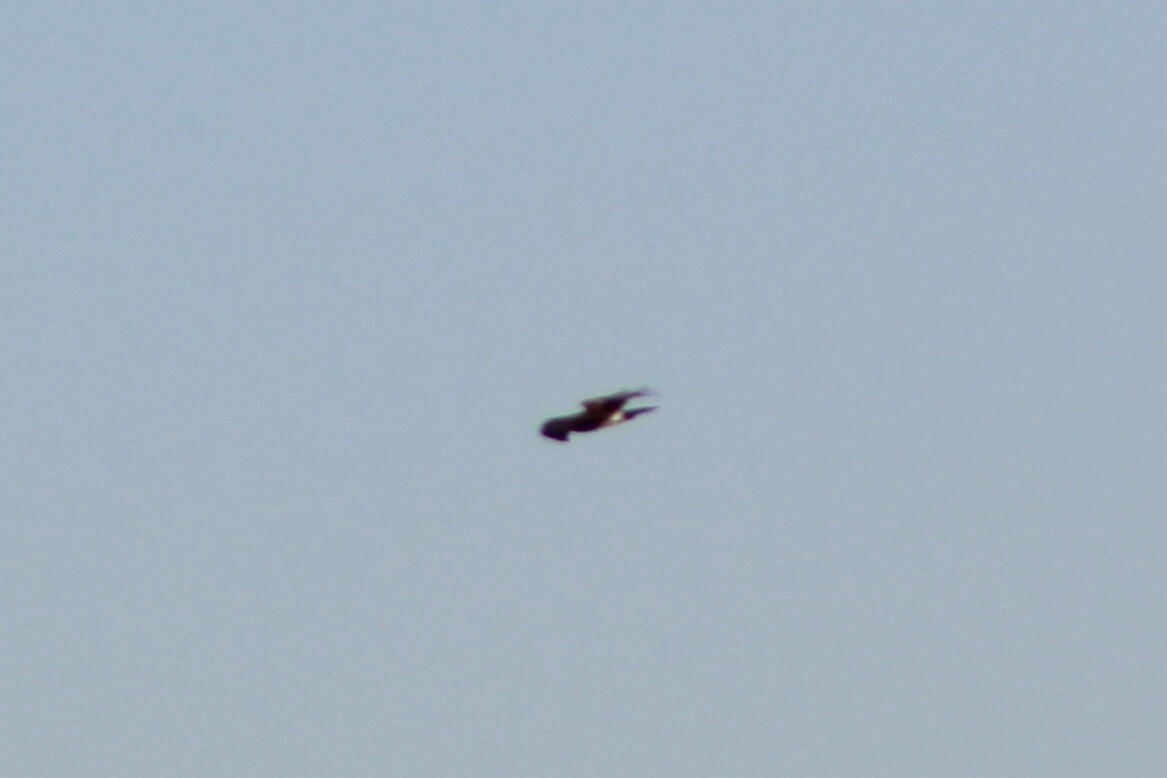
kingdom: Animalia
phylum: Chordata
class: Aves
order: Accipitriformes
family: Accipitridae
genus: Circus
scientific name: Circus cyaneus
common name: Hen harrier
